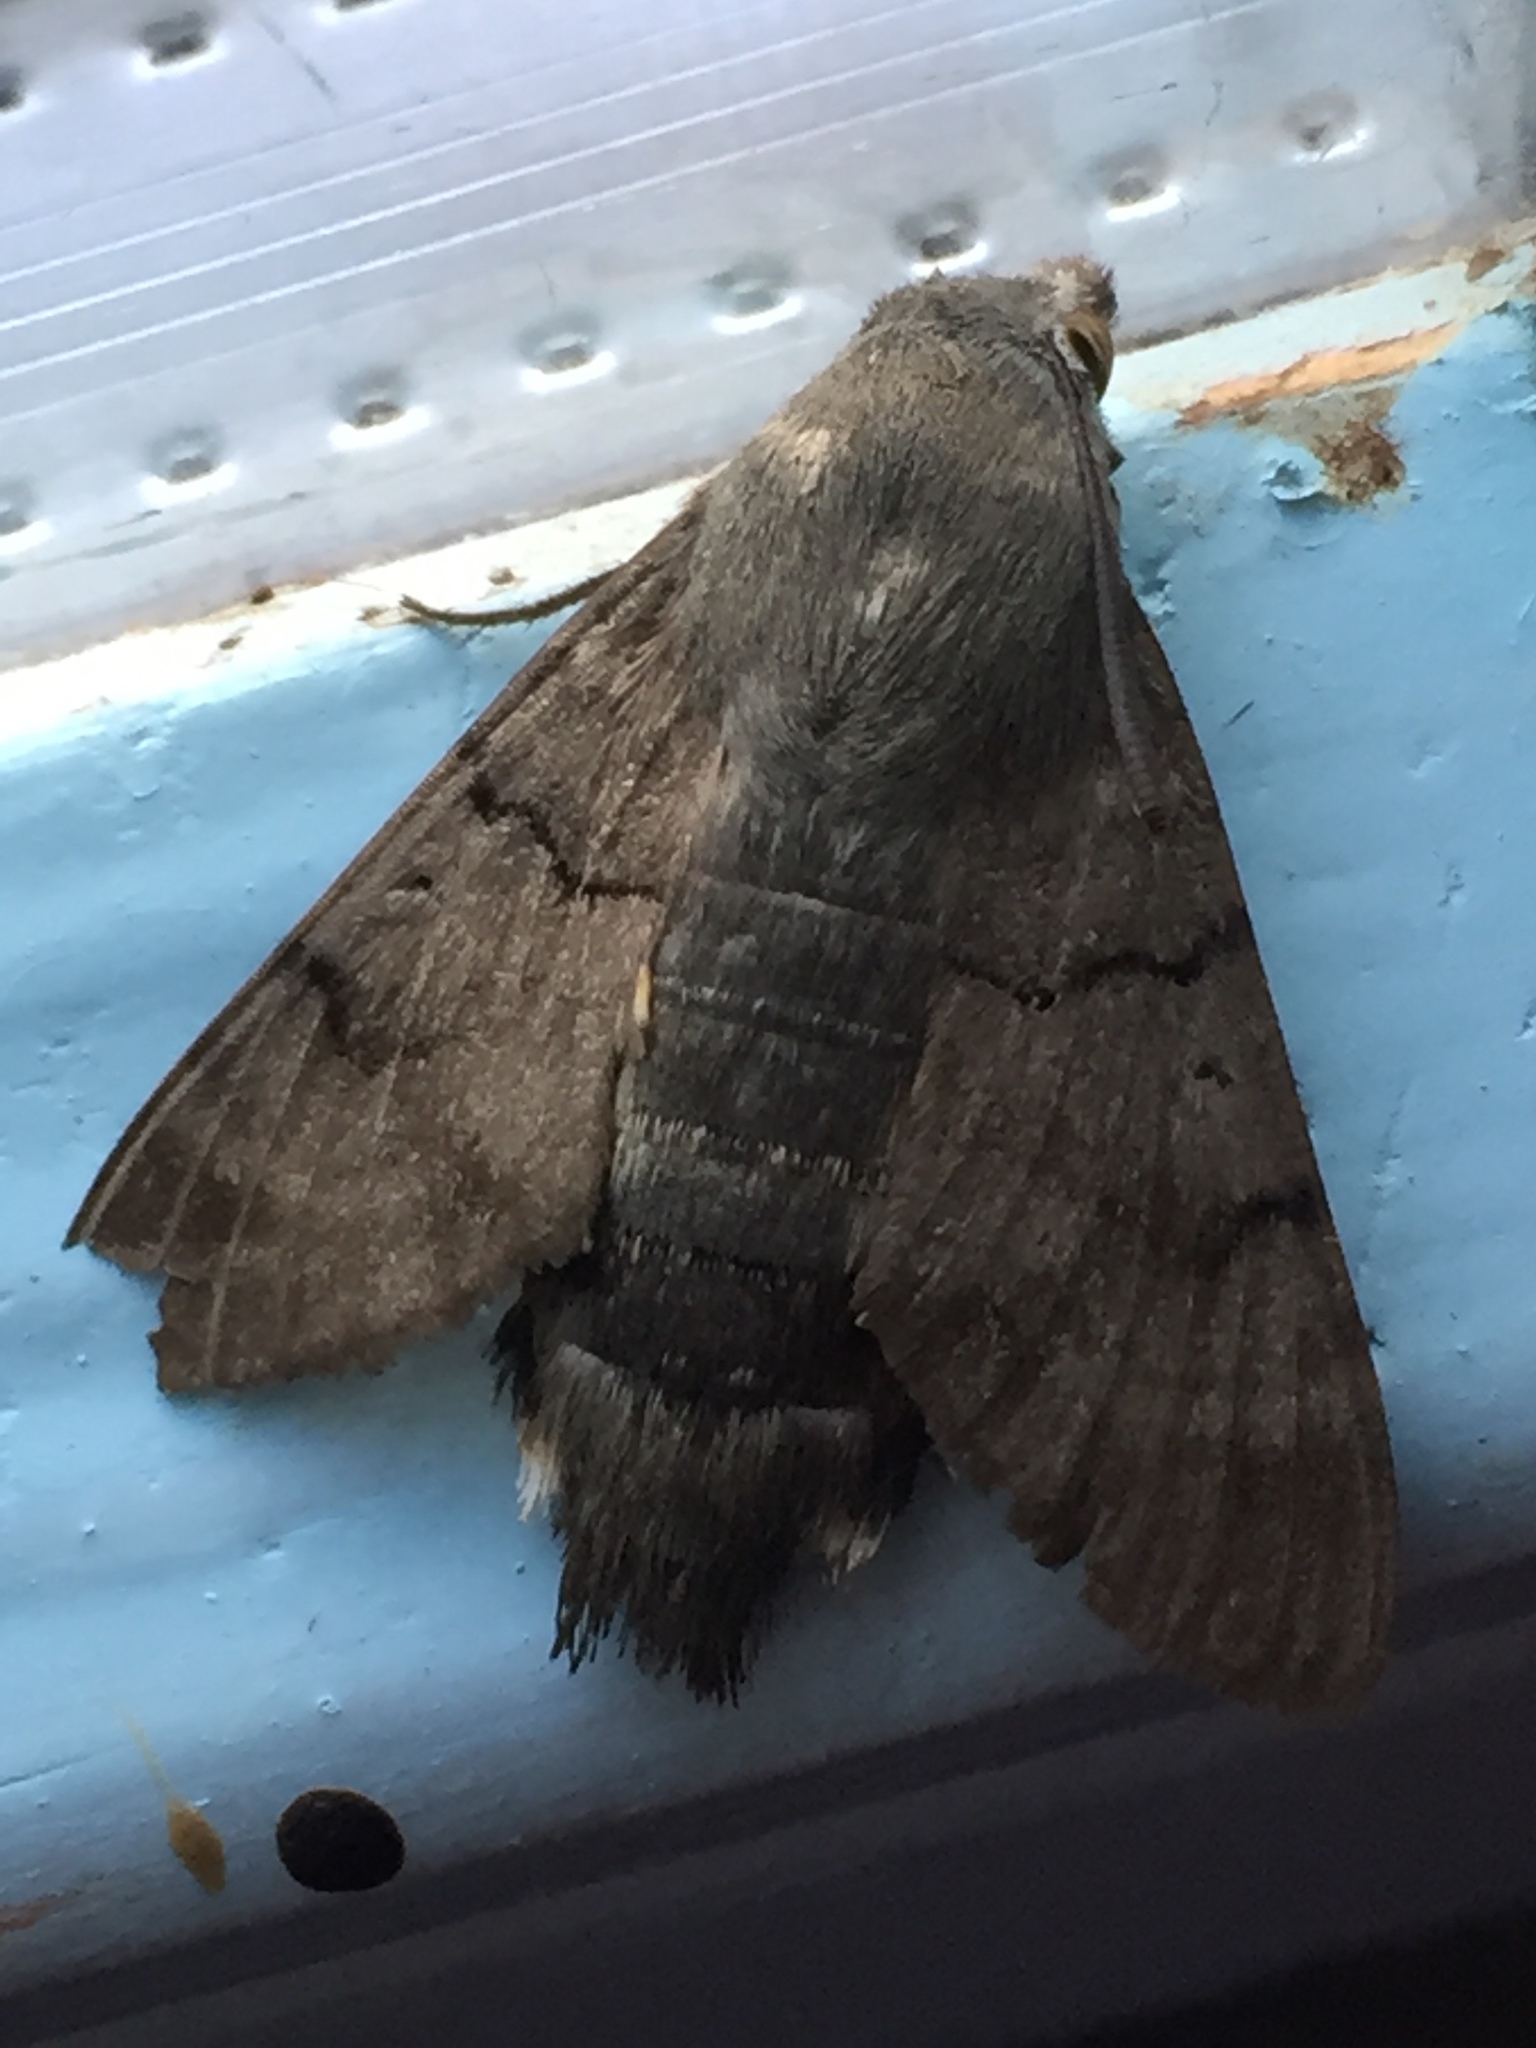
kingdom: Animalia
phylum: Arthropoda
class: Insecta
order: Lepidoptera
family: Sphingidae
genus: Macroglossum
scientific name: Macroglossum stellatarum
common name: Humming-bird hawk-moth
